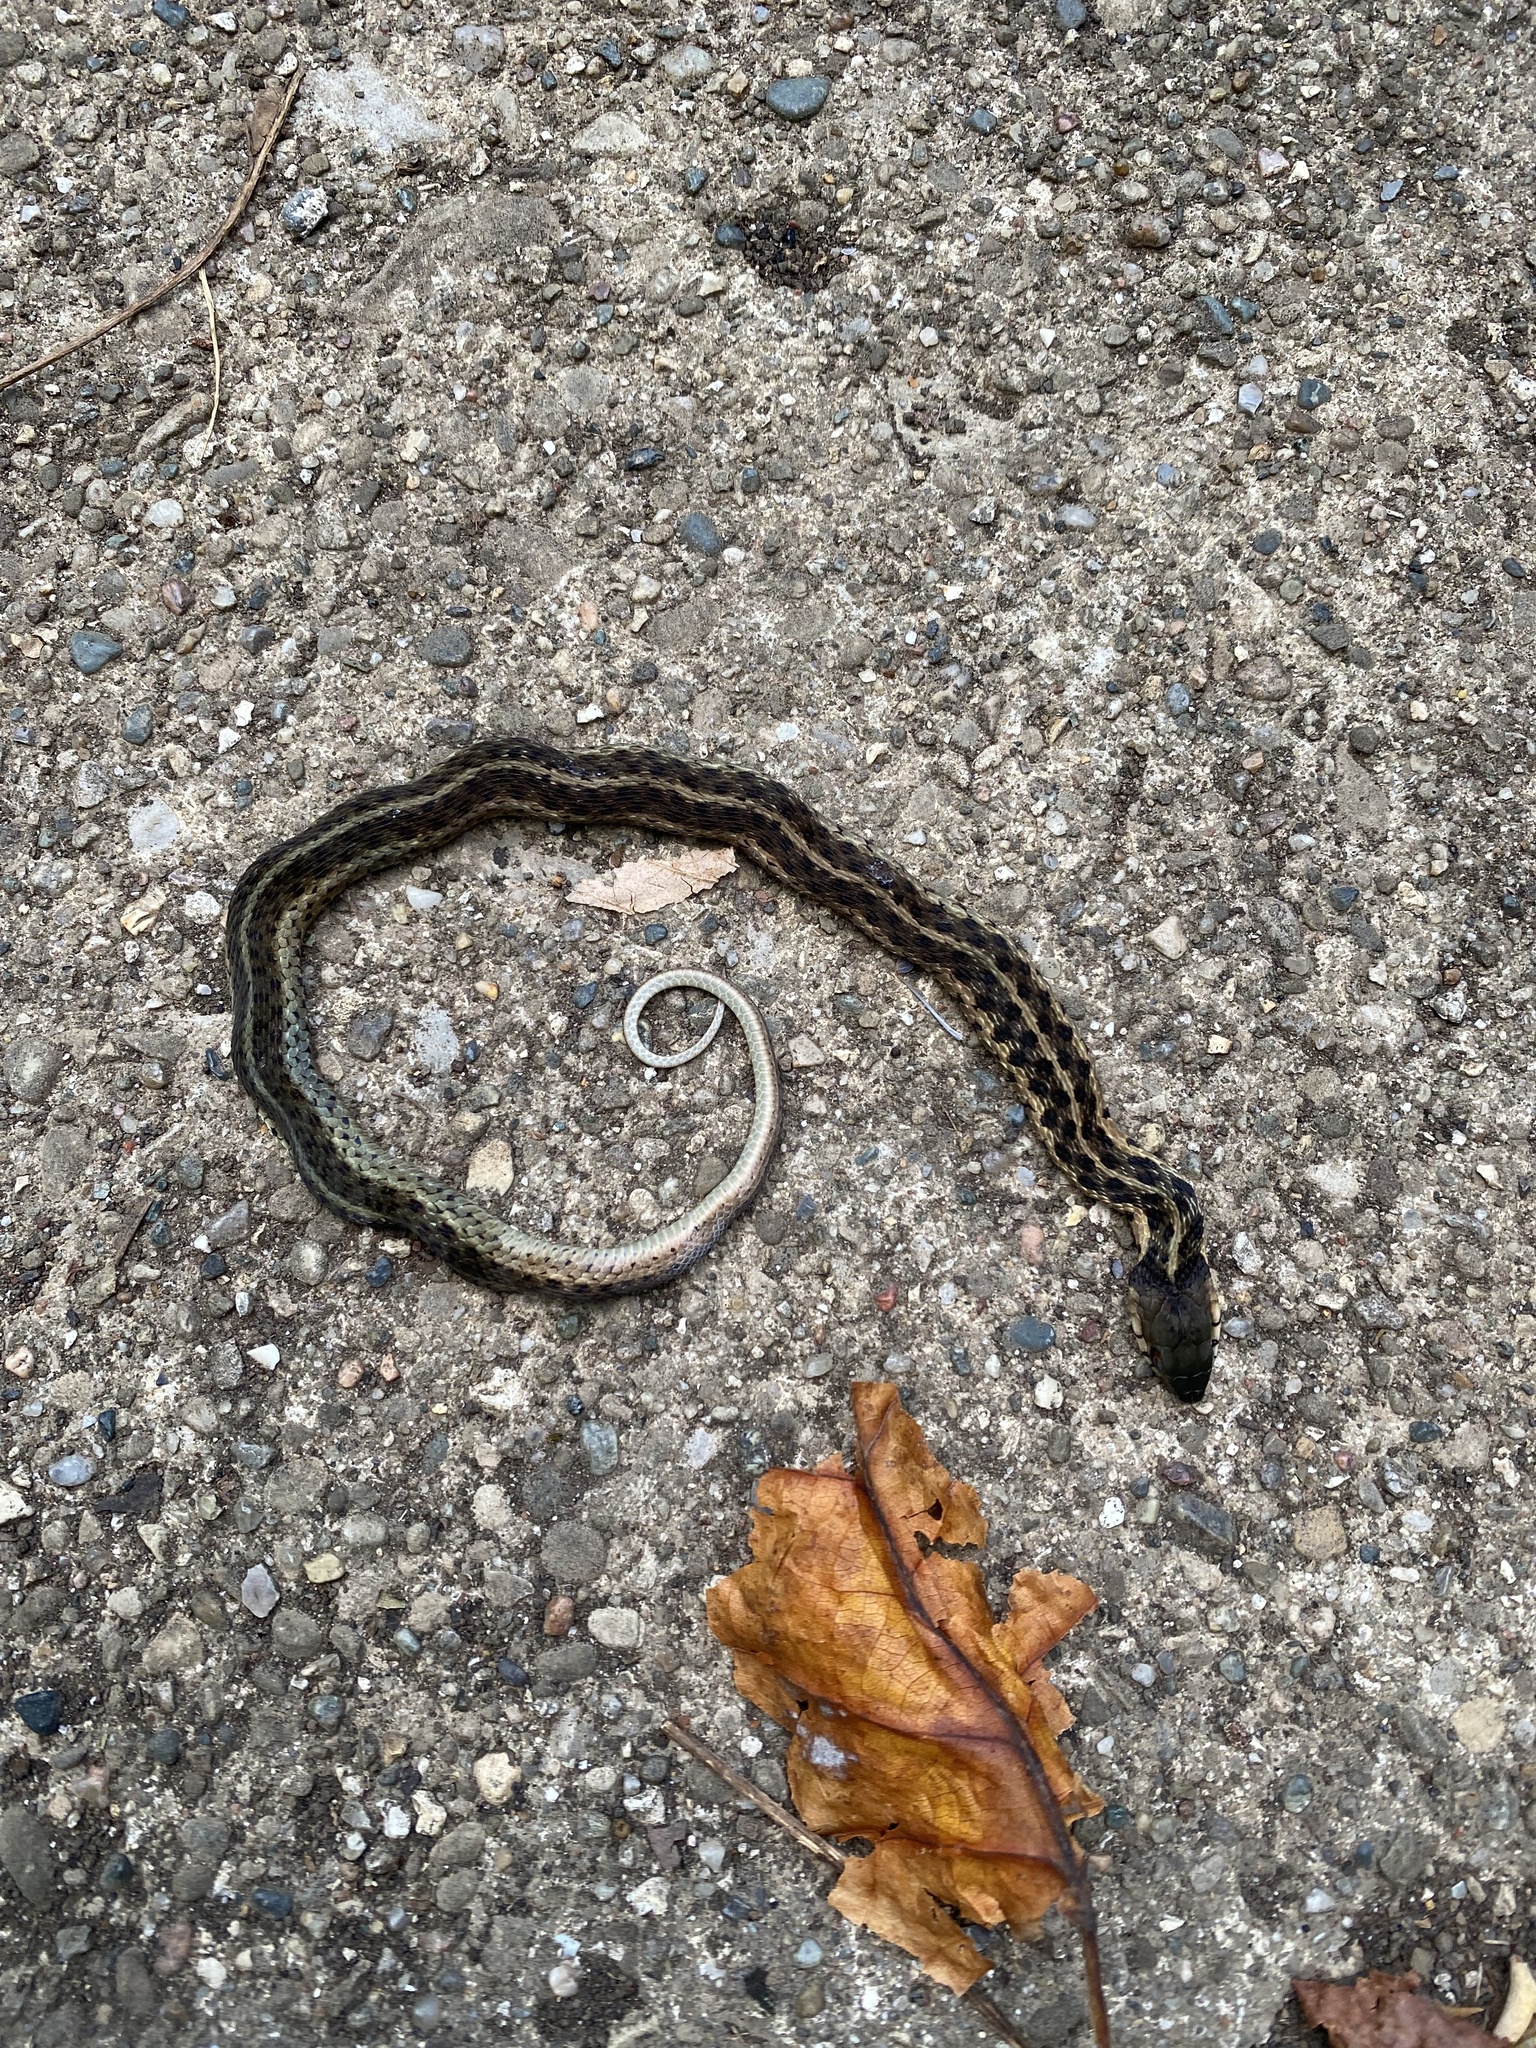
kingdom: Animalia
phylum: Chordata
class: Squamata
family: Colubridae
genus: Thamnophis
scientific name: Thamnophis sirtalis
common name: Common garter snake
